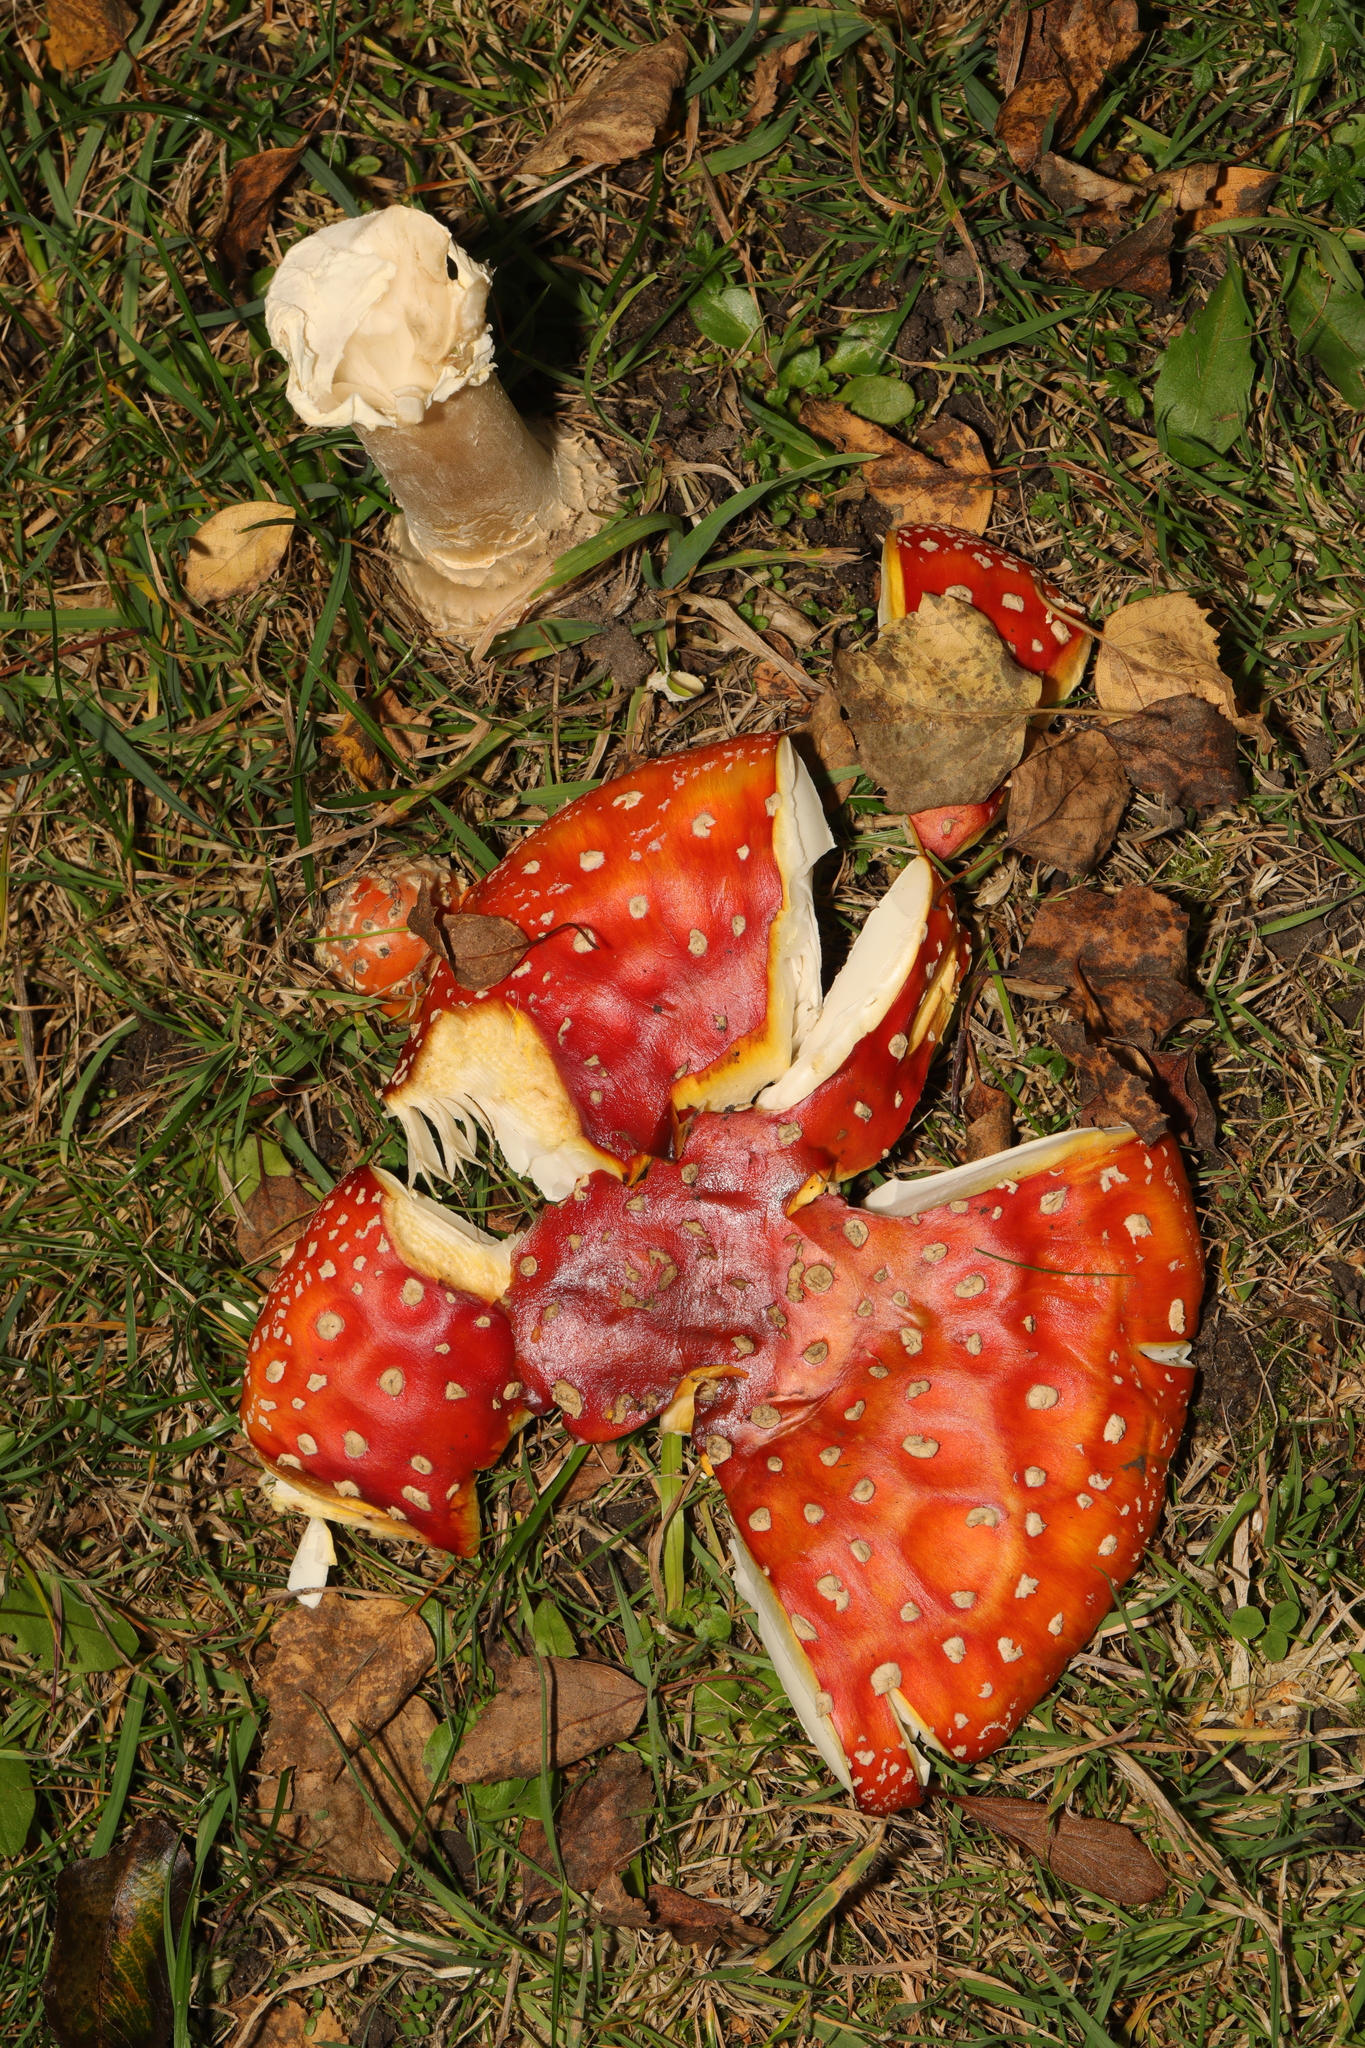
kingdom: Fungi
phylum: Basidiomycota
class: Agaricomycetes
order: Agaricales
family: Amanitaceae
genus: Amanita
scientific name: Amanita muscaria
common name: Fly agaric
